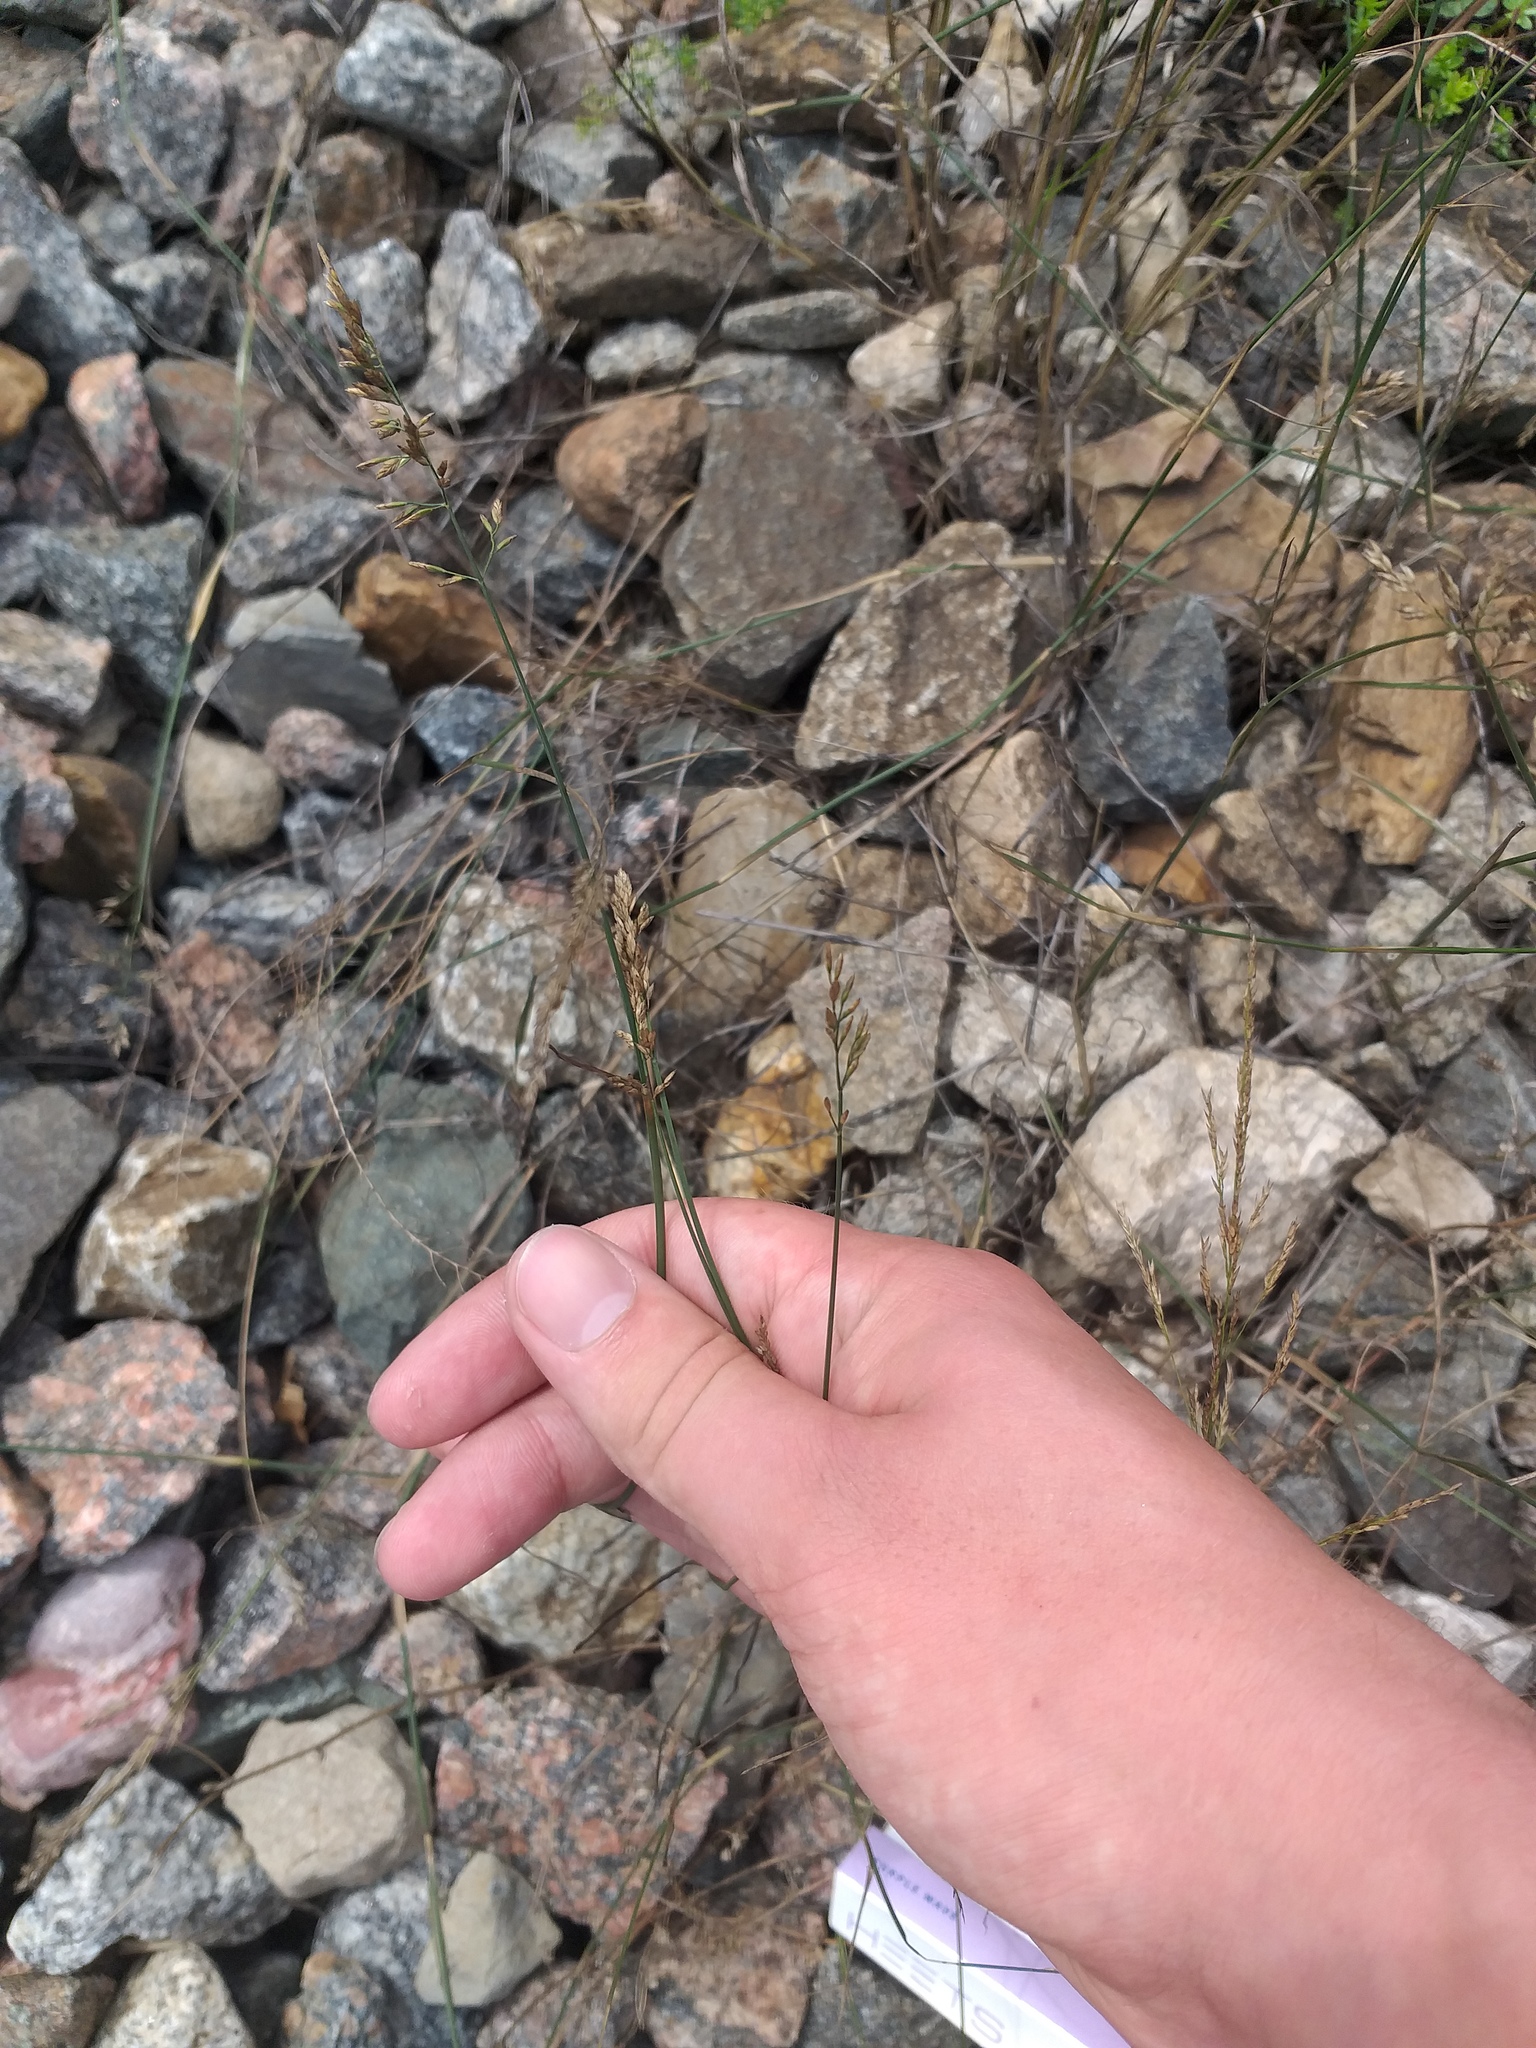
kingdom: Plantae
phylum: Tracheophyta
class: Liliopsida
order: Poales
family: Poaceae
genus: Poa
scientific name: Poa compressa
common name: Canada bluegrass
